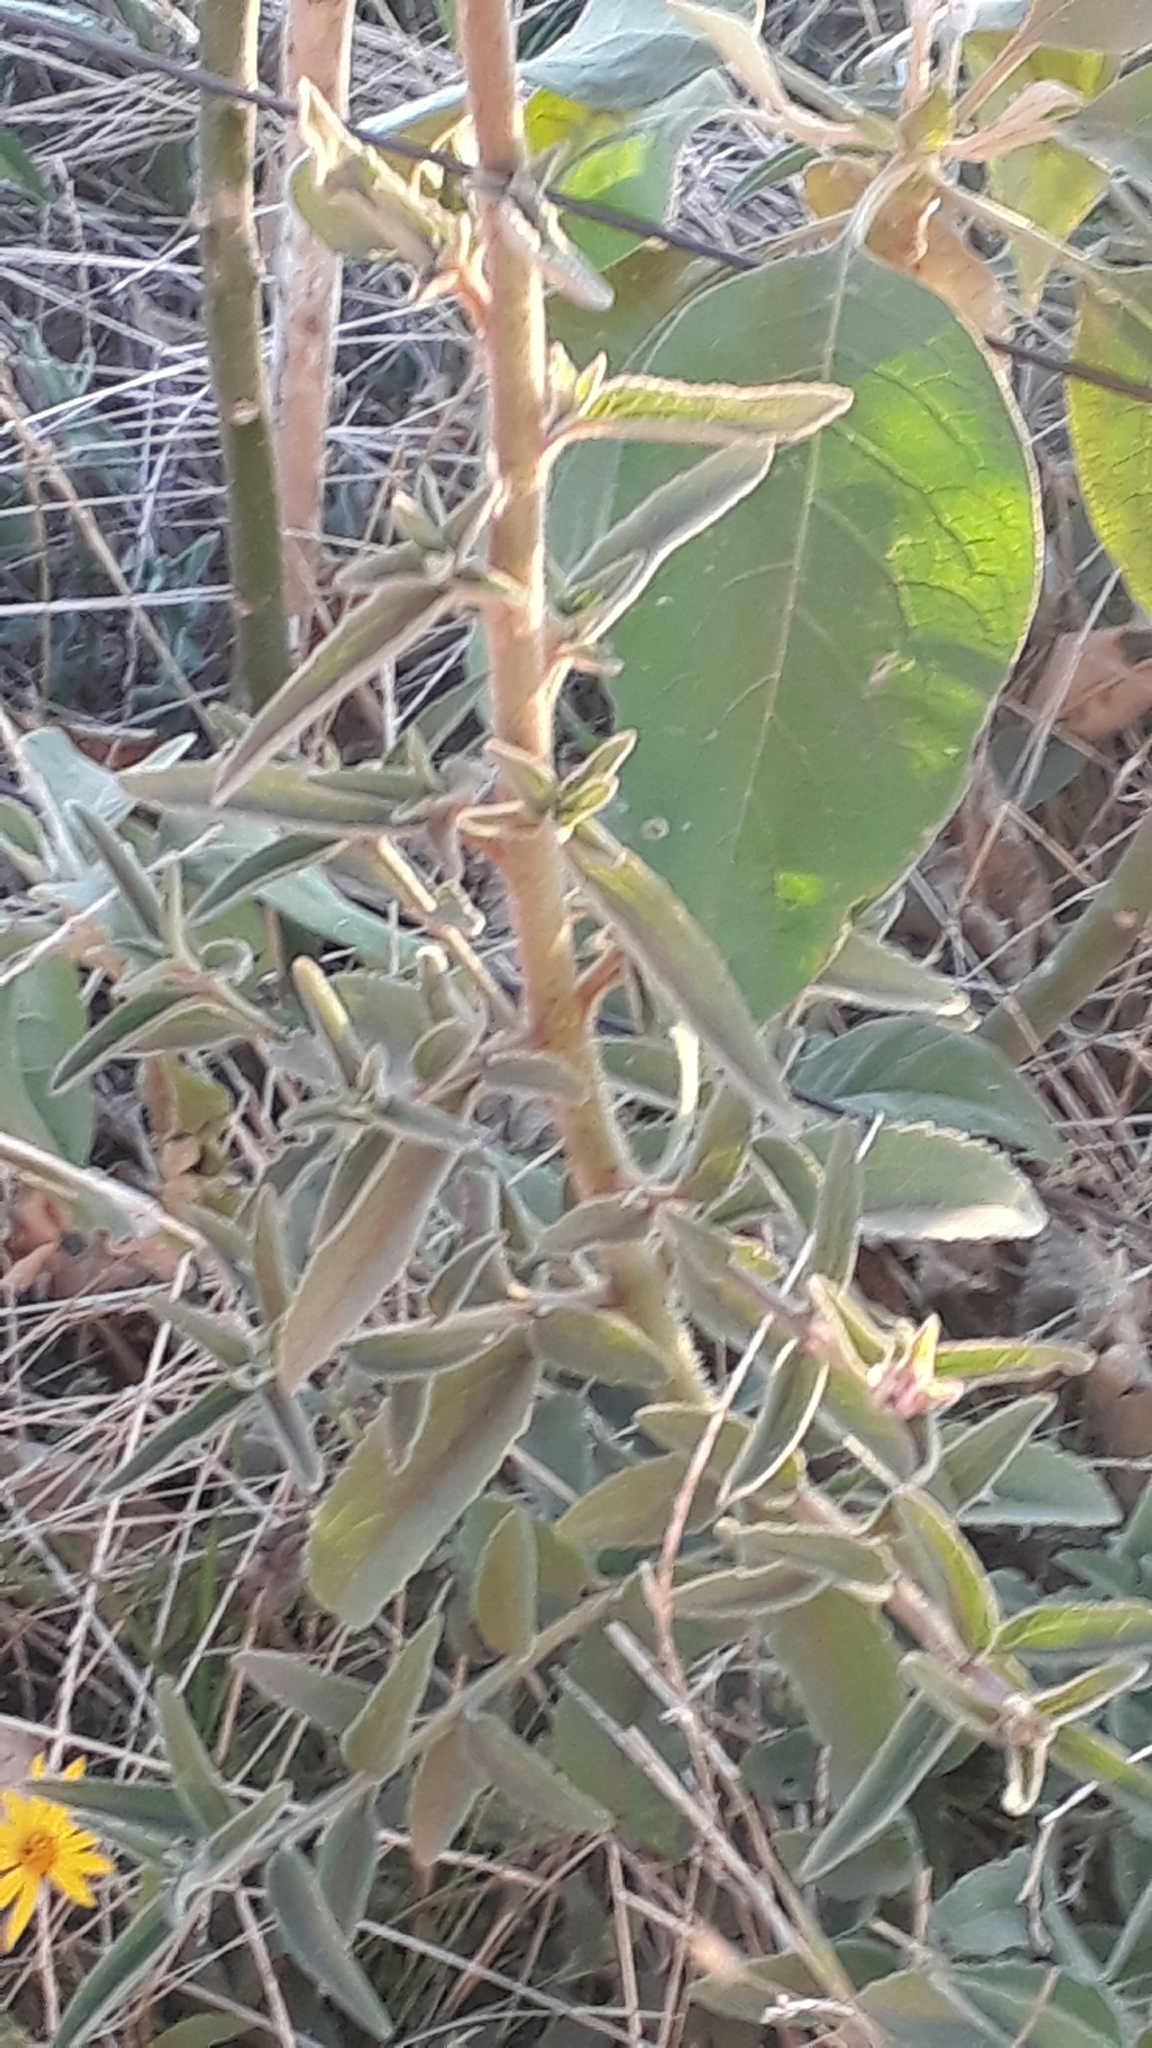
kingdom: Plantae
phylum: Tracheophyta
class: Magnoliopsida
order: Asterales
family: Asteraceae
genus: Campuloclinium
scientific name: Campuloclinium macrocephalum
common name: Pompomweed
